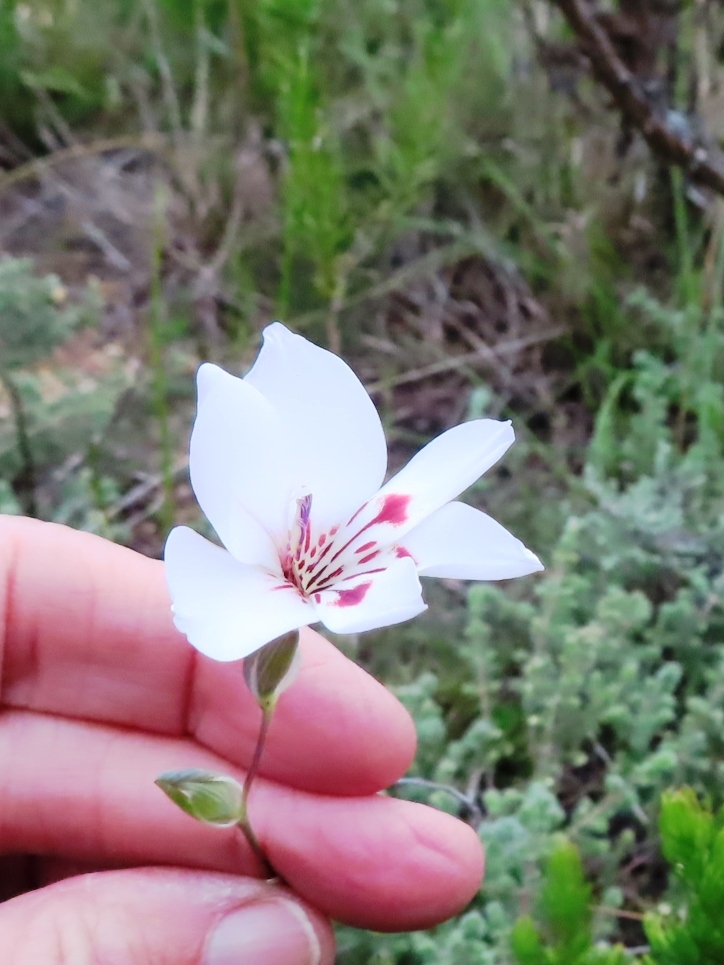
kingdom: Plantae
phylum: Tracheophyta
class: Liliopsida
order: Asparagales
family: Iridaceae
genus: Gladiolus
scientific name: Gladiolus debilis
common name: Painted-lady
